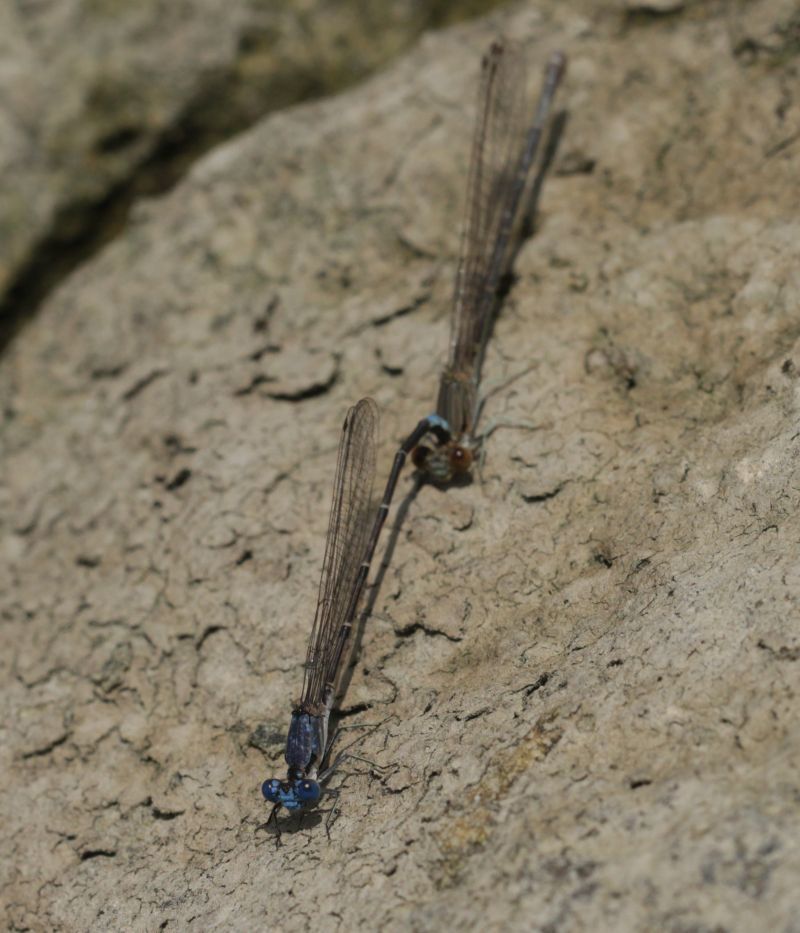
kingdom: Animalia
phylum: Arthropoda
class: Insecta
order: Odonata
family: Coenagrionidae
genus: Argia
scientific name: Argia apicalis
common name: Blue-fronted dancer
